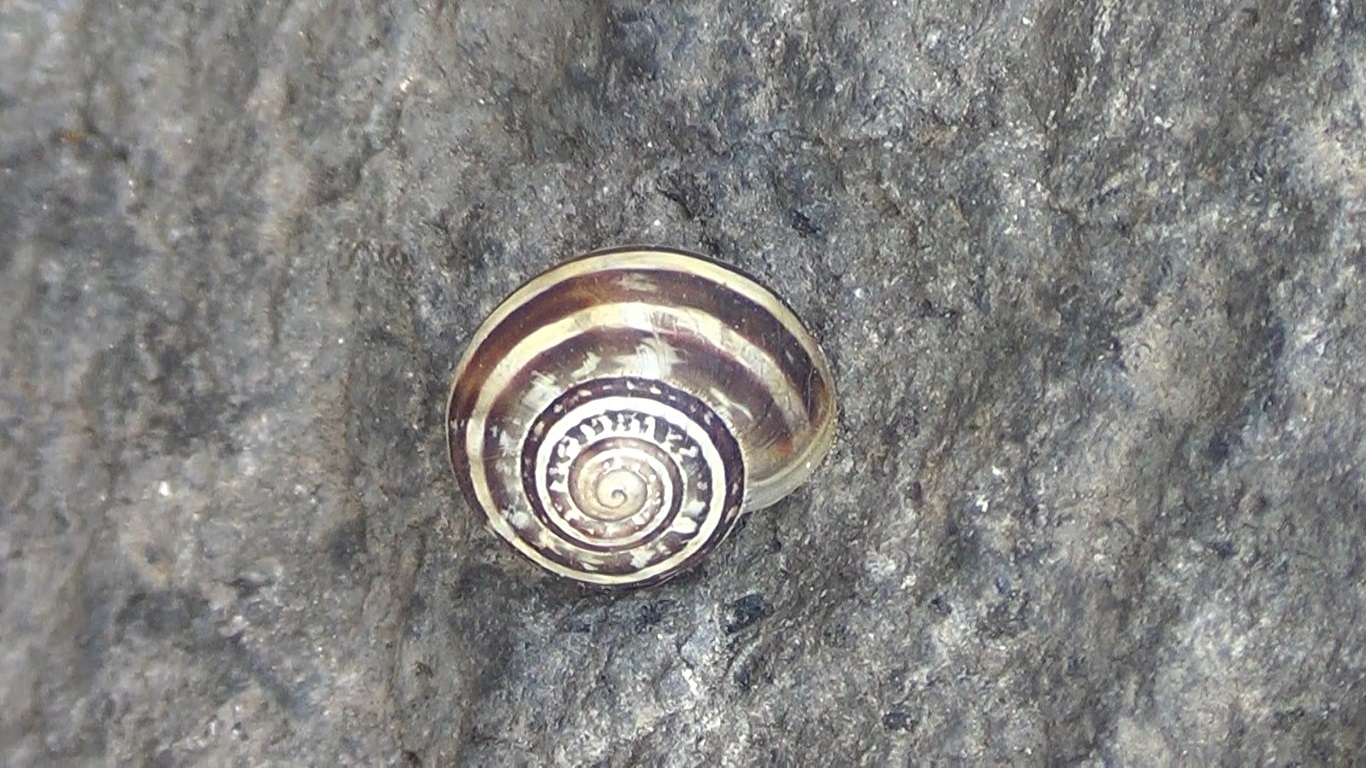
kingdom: Animalia
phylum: Mollusca
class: Gastropoda
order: Stylommatophora
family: Helicidae
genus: Eobania
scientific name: Eobania vermiculata
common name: Chocolateband snail
